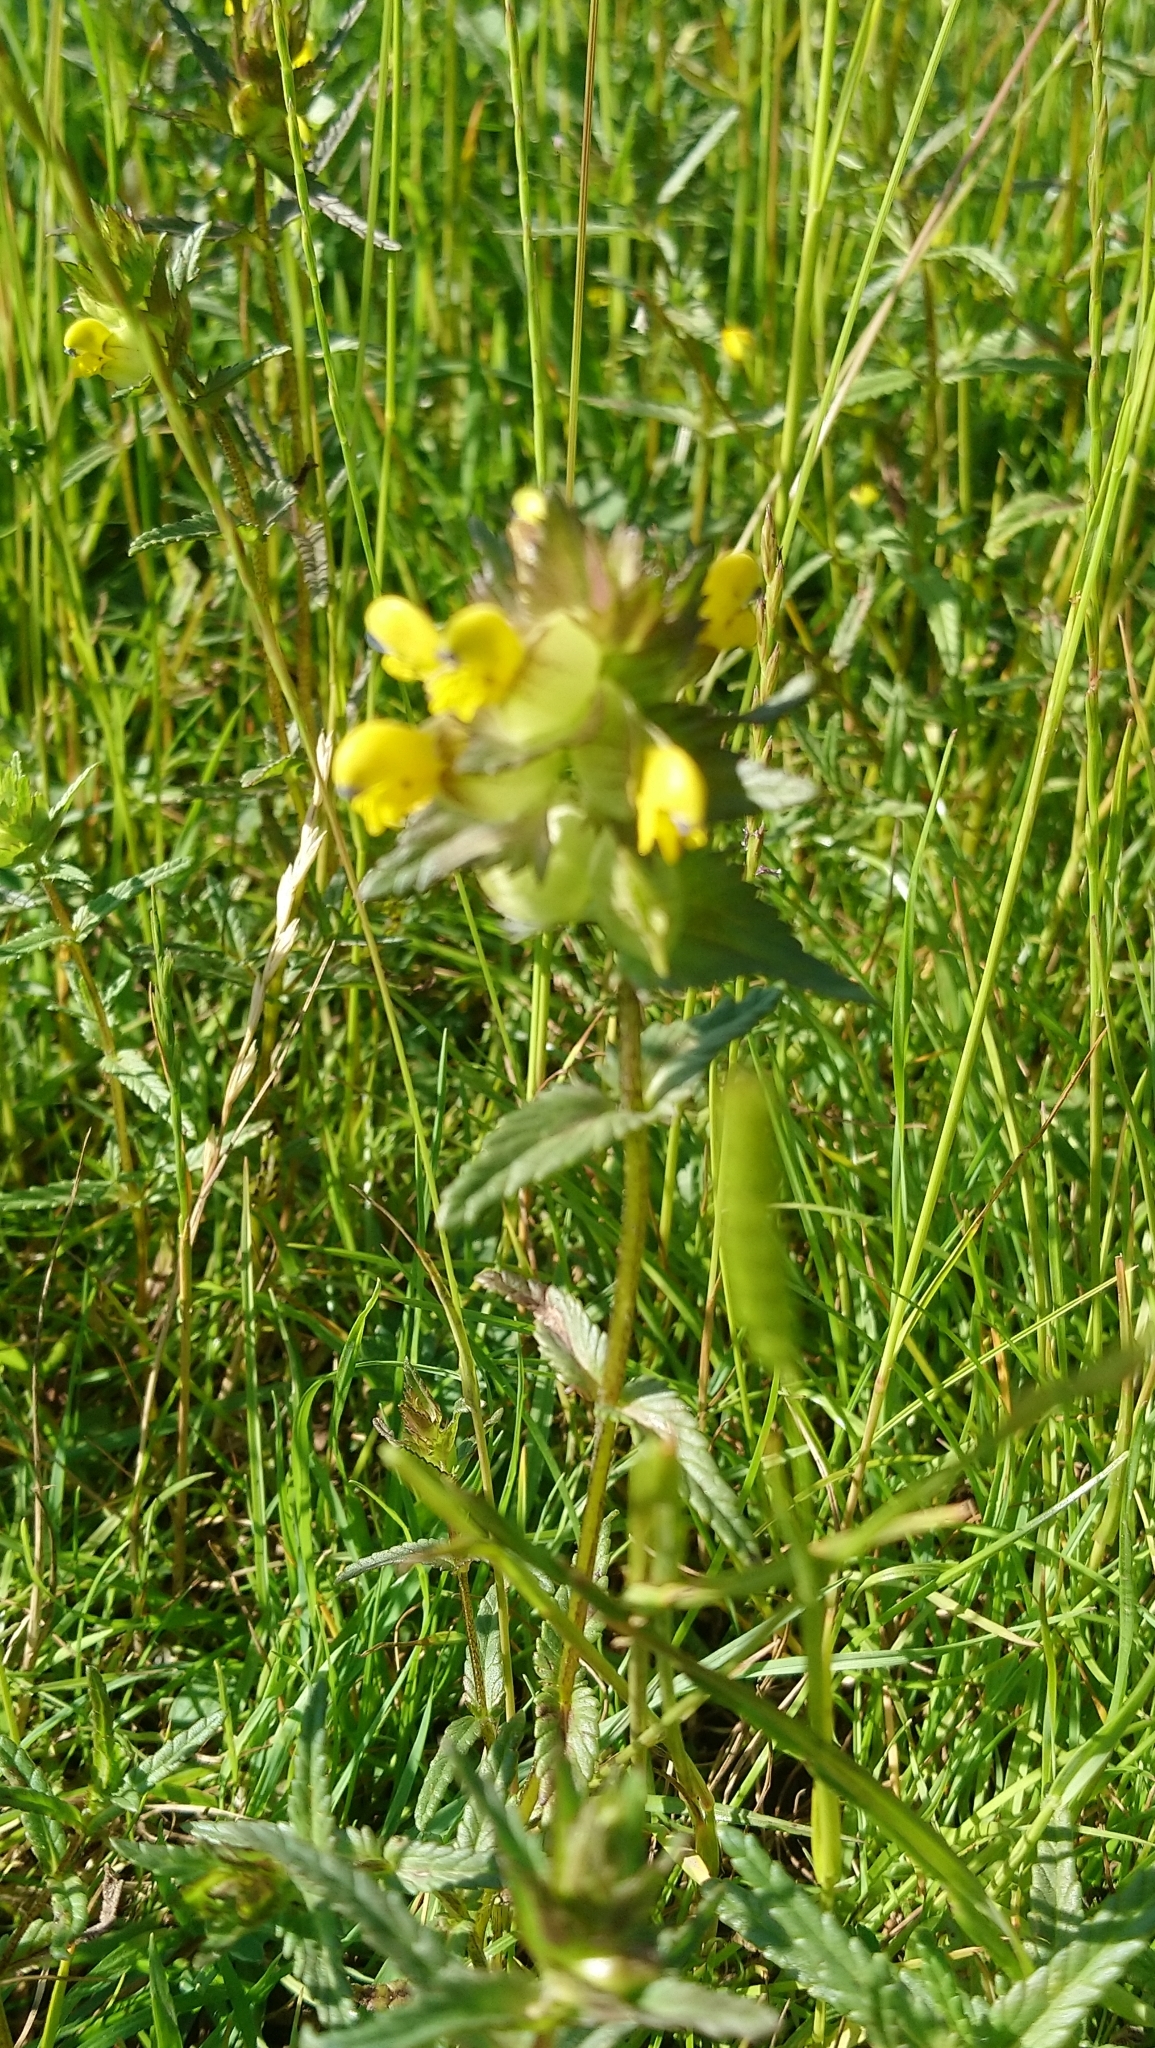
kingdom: Plantae
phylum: Tracheophyta
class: Magnoliopsida
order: Lamiales
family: Orobanchaceae
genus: Rhinanthus
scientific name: Rhinanthus minor
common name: Yellow-rattle
